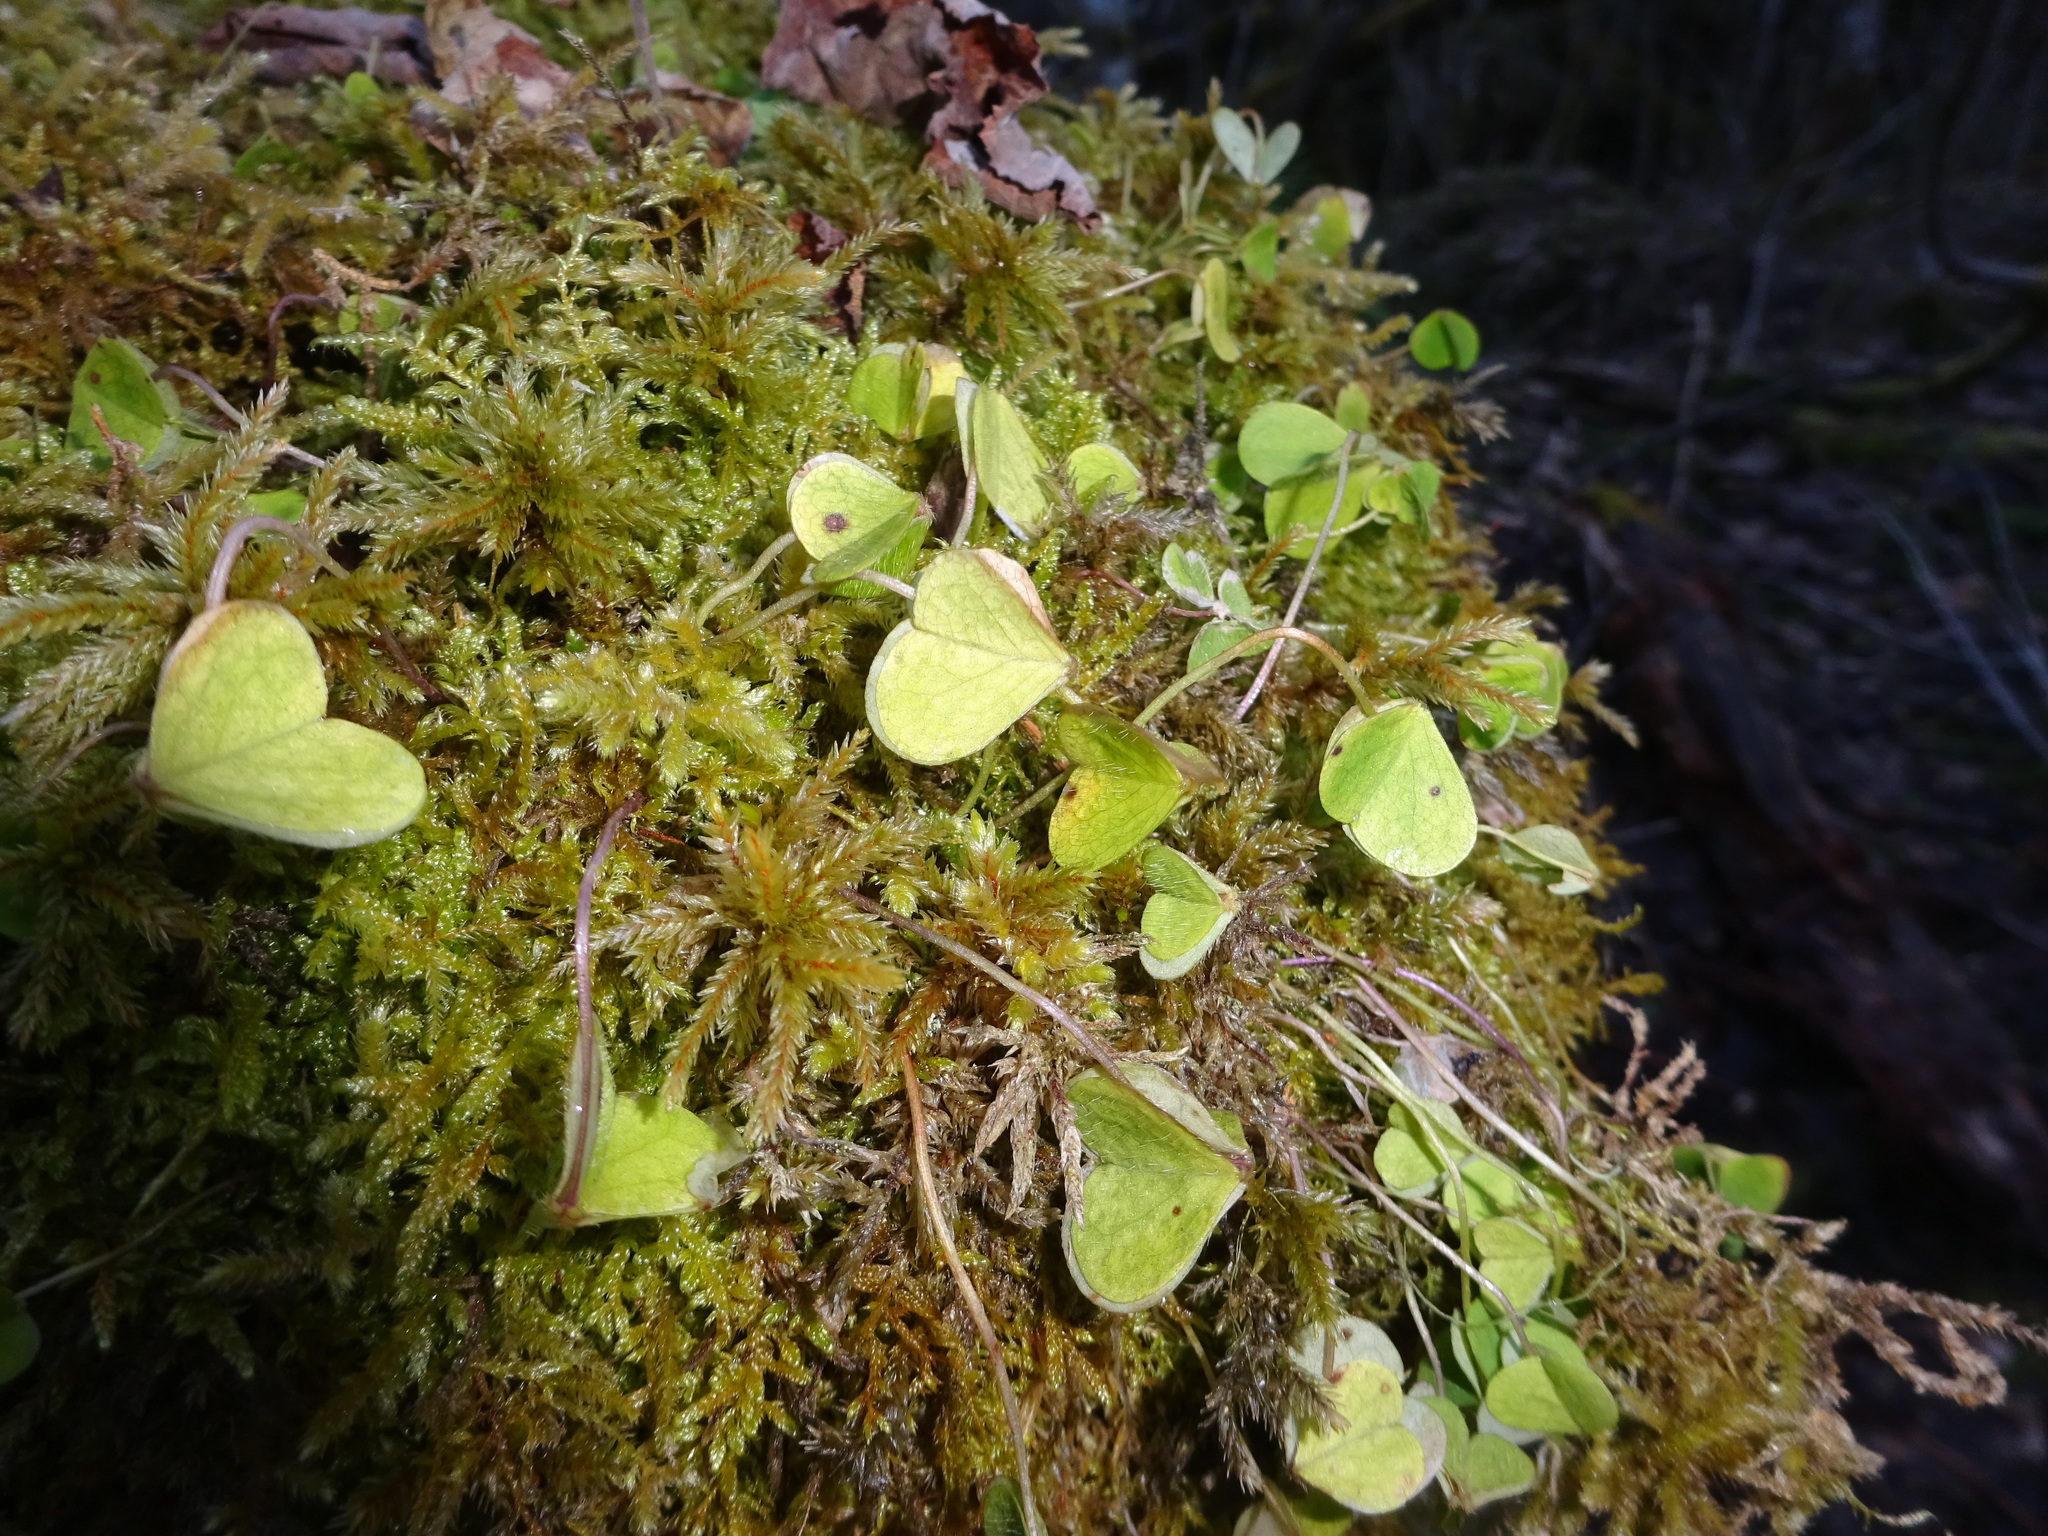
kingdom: Plantae
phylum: Tracheophyta
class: Magnoliopsida
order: Oxalidales
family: Oxalidaceae
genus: Oxalis
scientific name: Oxalis acetosella
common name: Wood-sorrel
